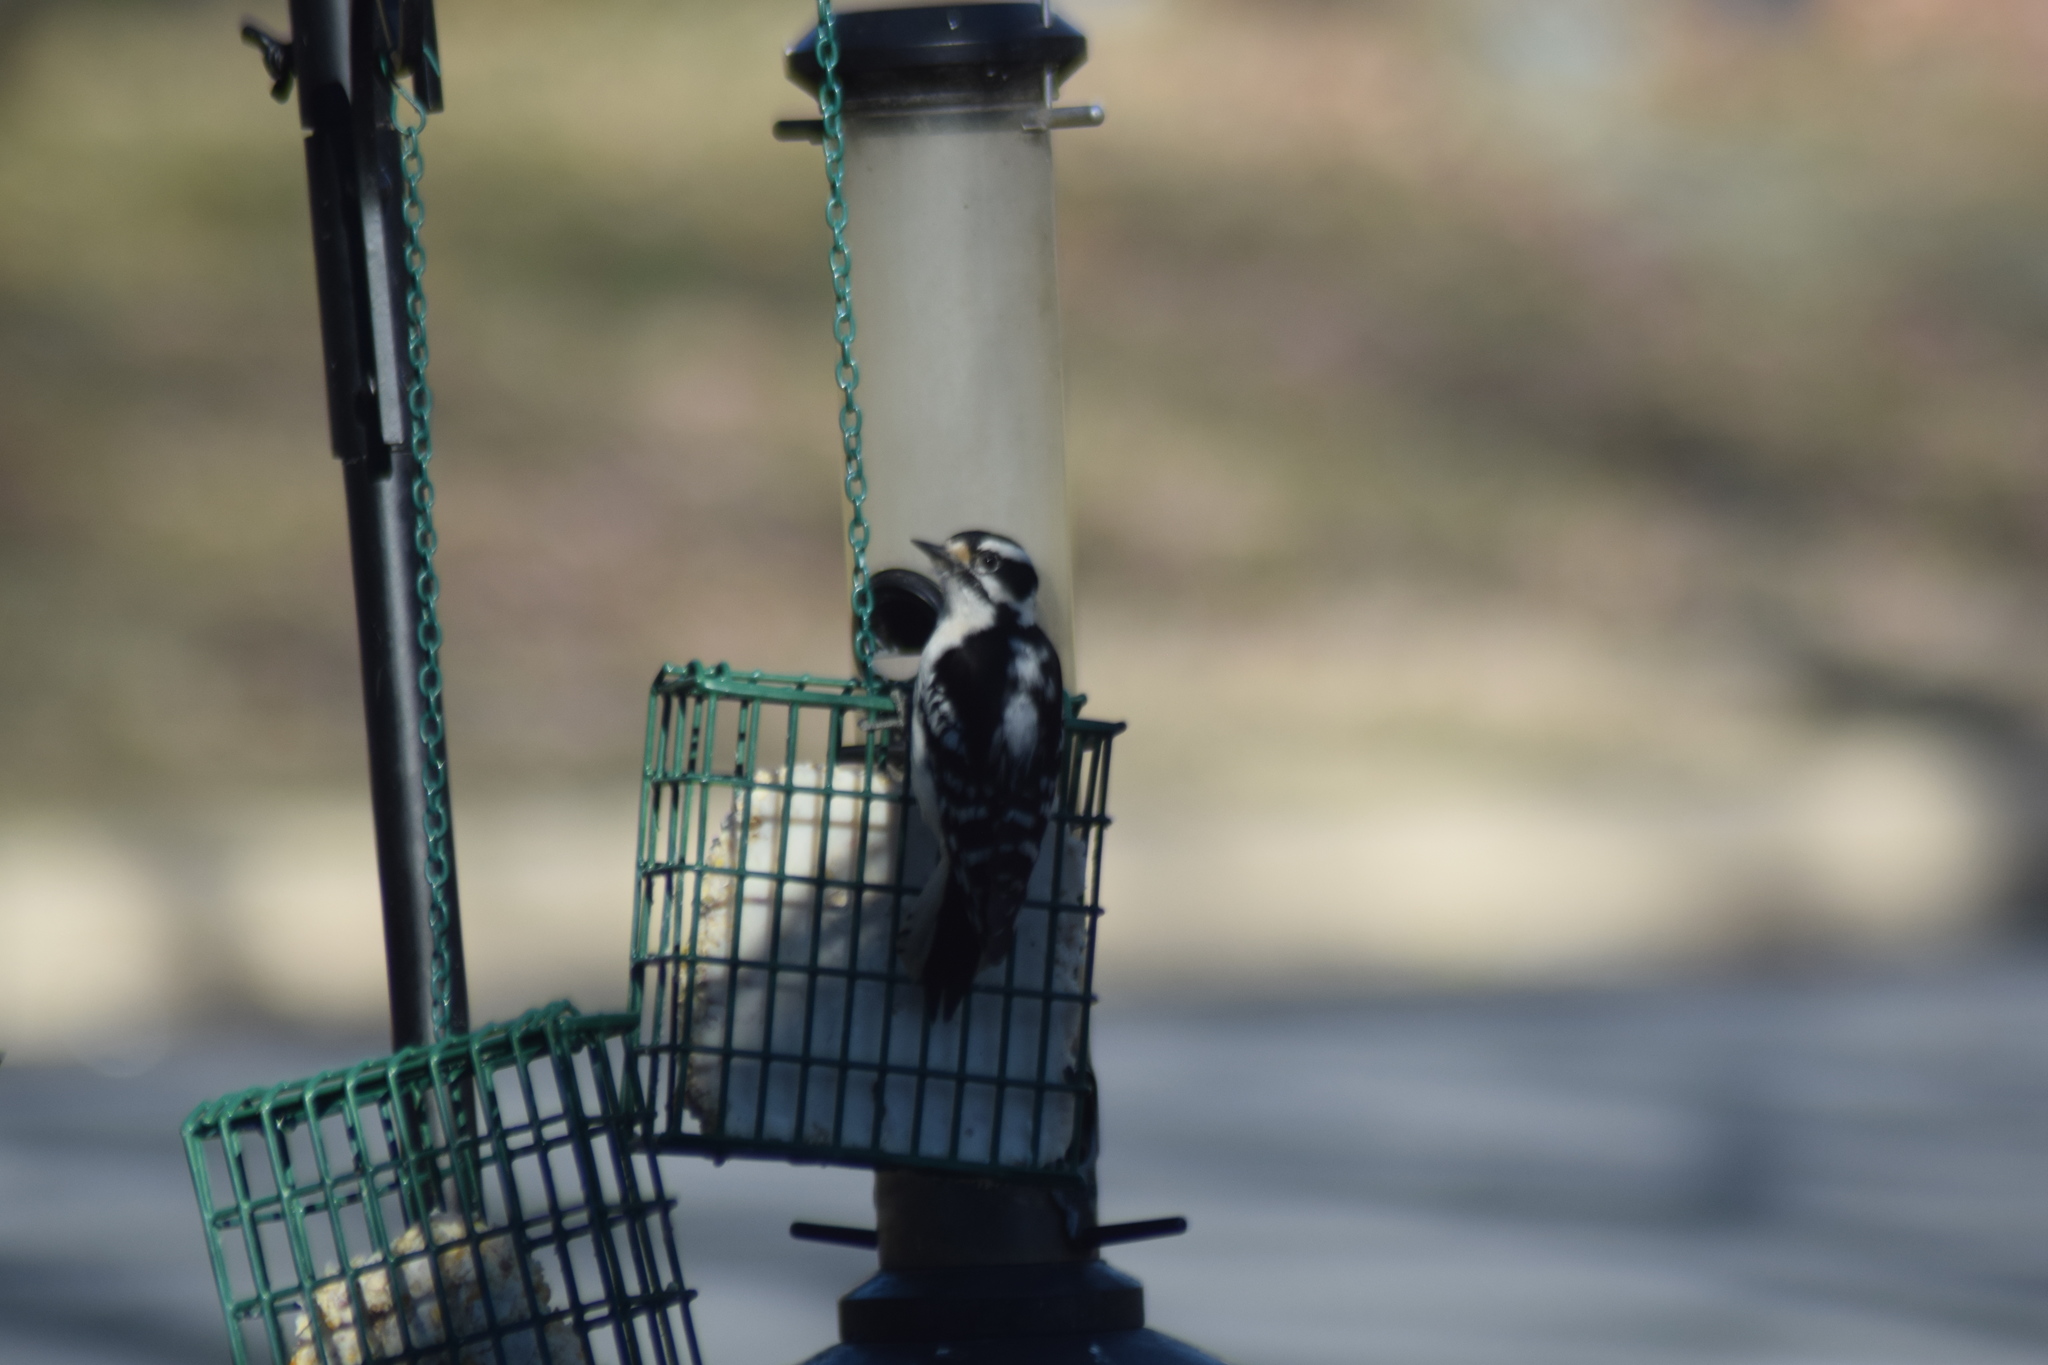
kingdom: Animalia
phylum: Chordata
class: Aves
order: Piciformes
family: Picidae
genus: Dryobates
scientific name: Dryobates pubescens
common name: Downy woodpecker
